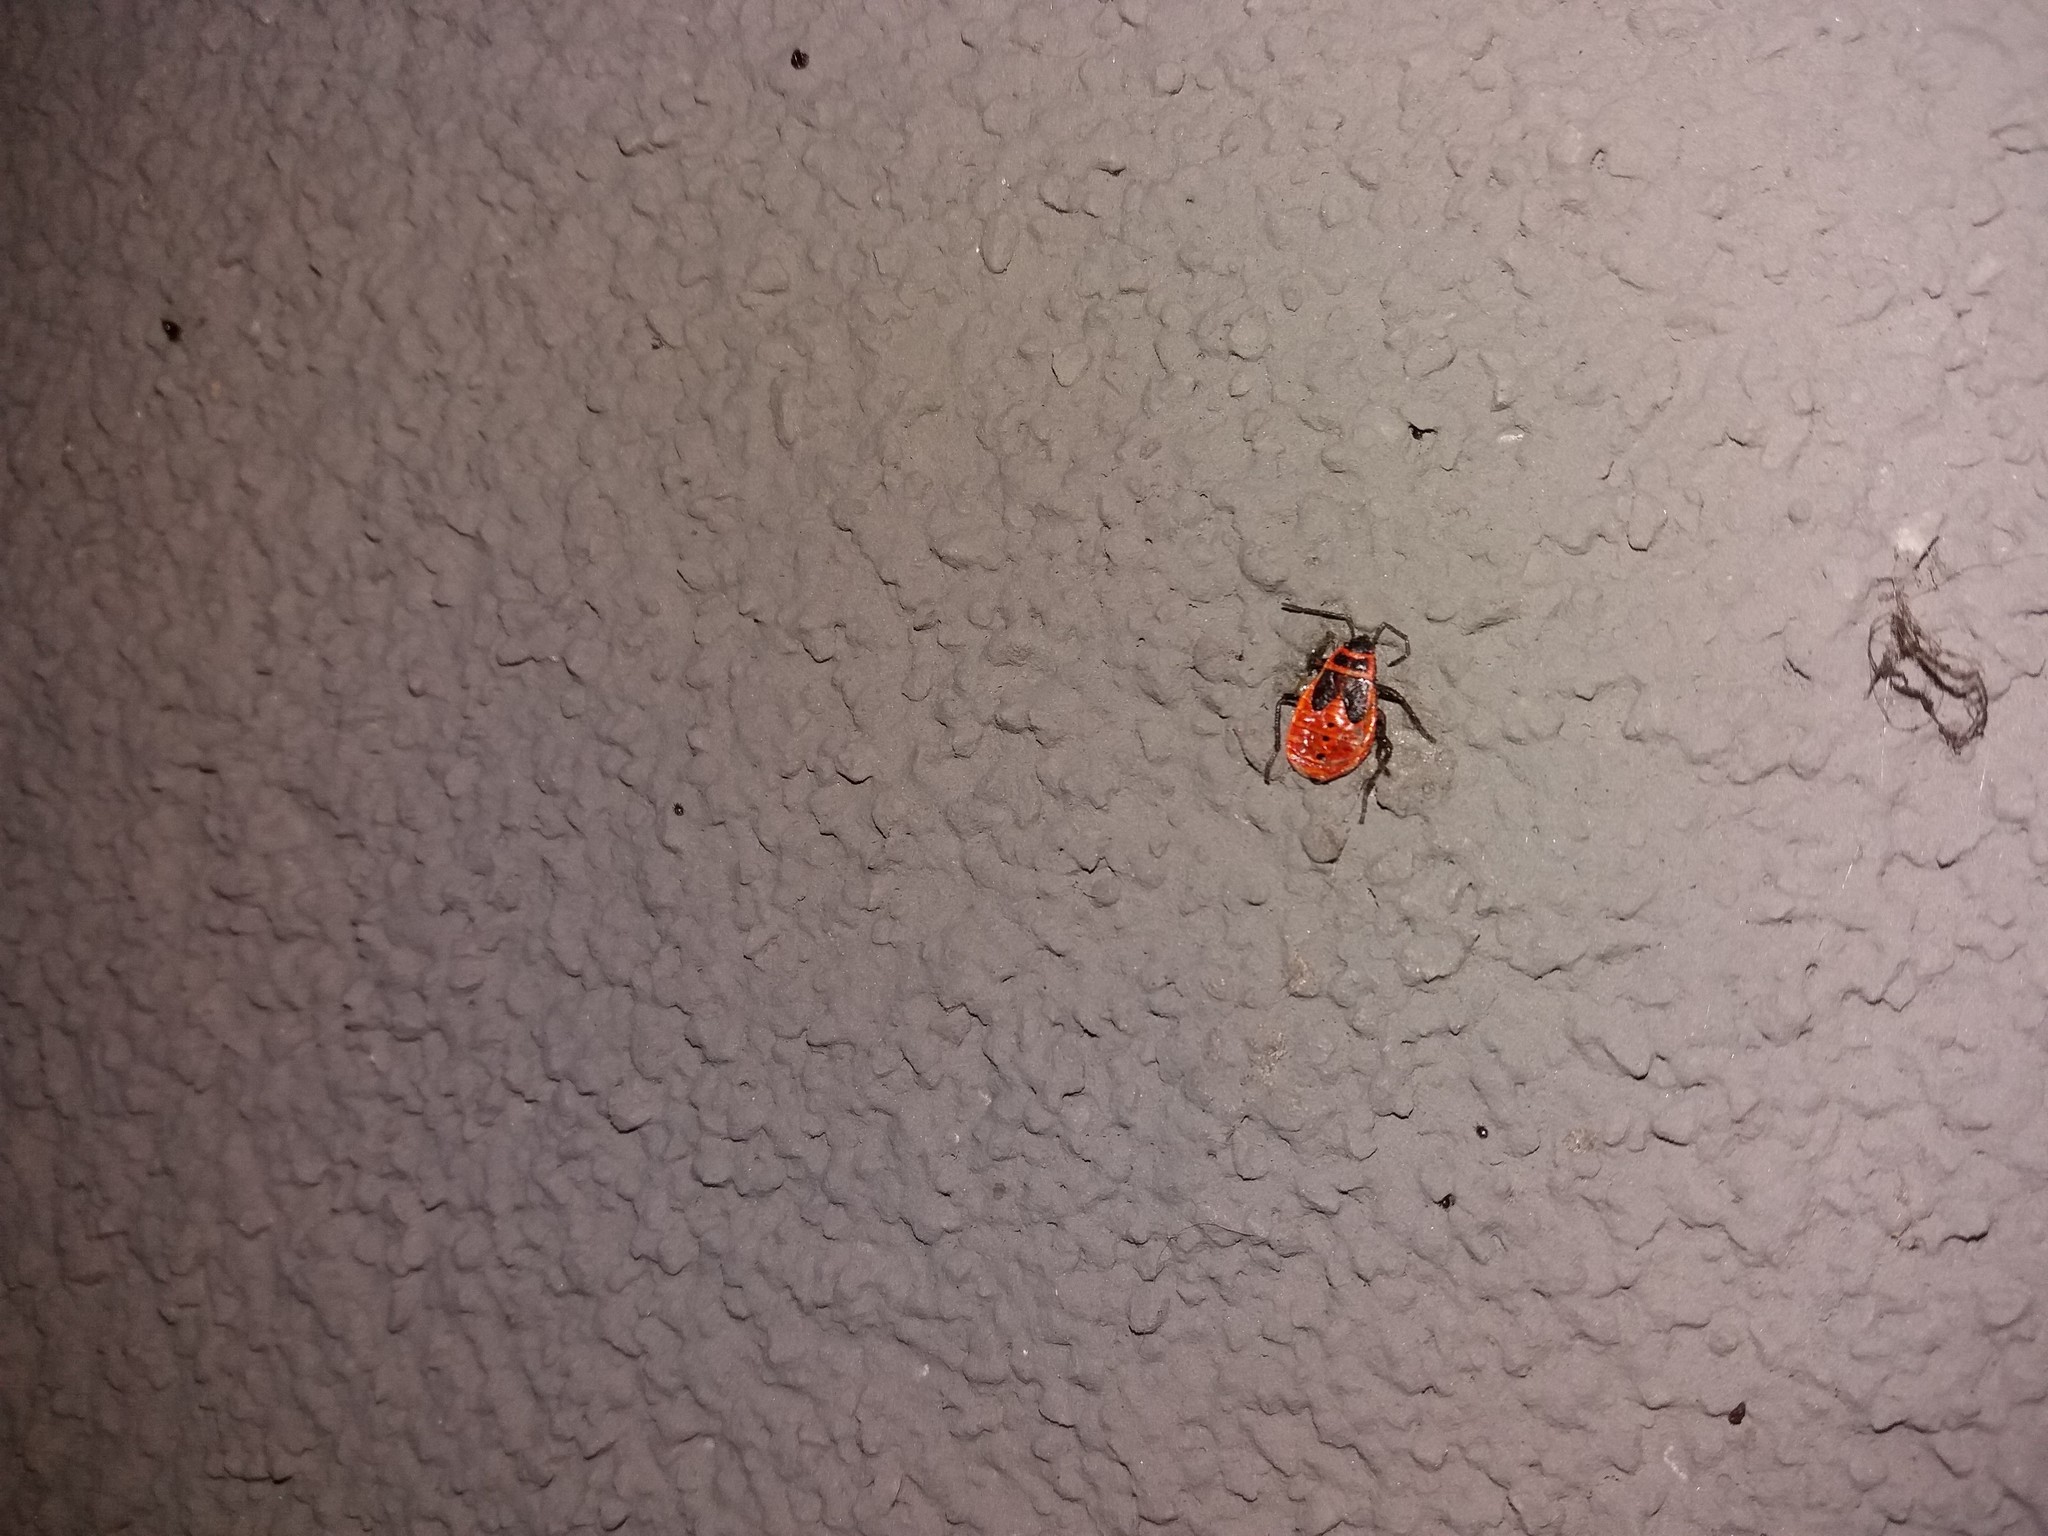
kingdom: Animalia
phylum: Arthropoda
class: Insecta
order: Hemiptera
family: Pyrrhocoridae
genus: Pyrrhocoris
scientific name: Pyrrhocoris apterus
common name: Firebug
